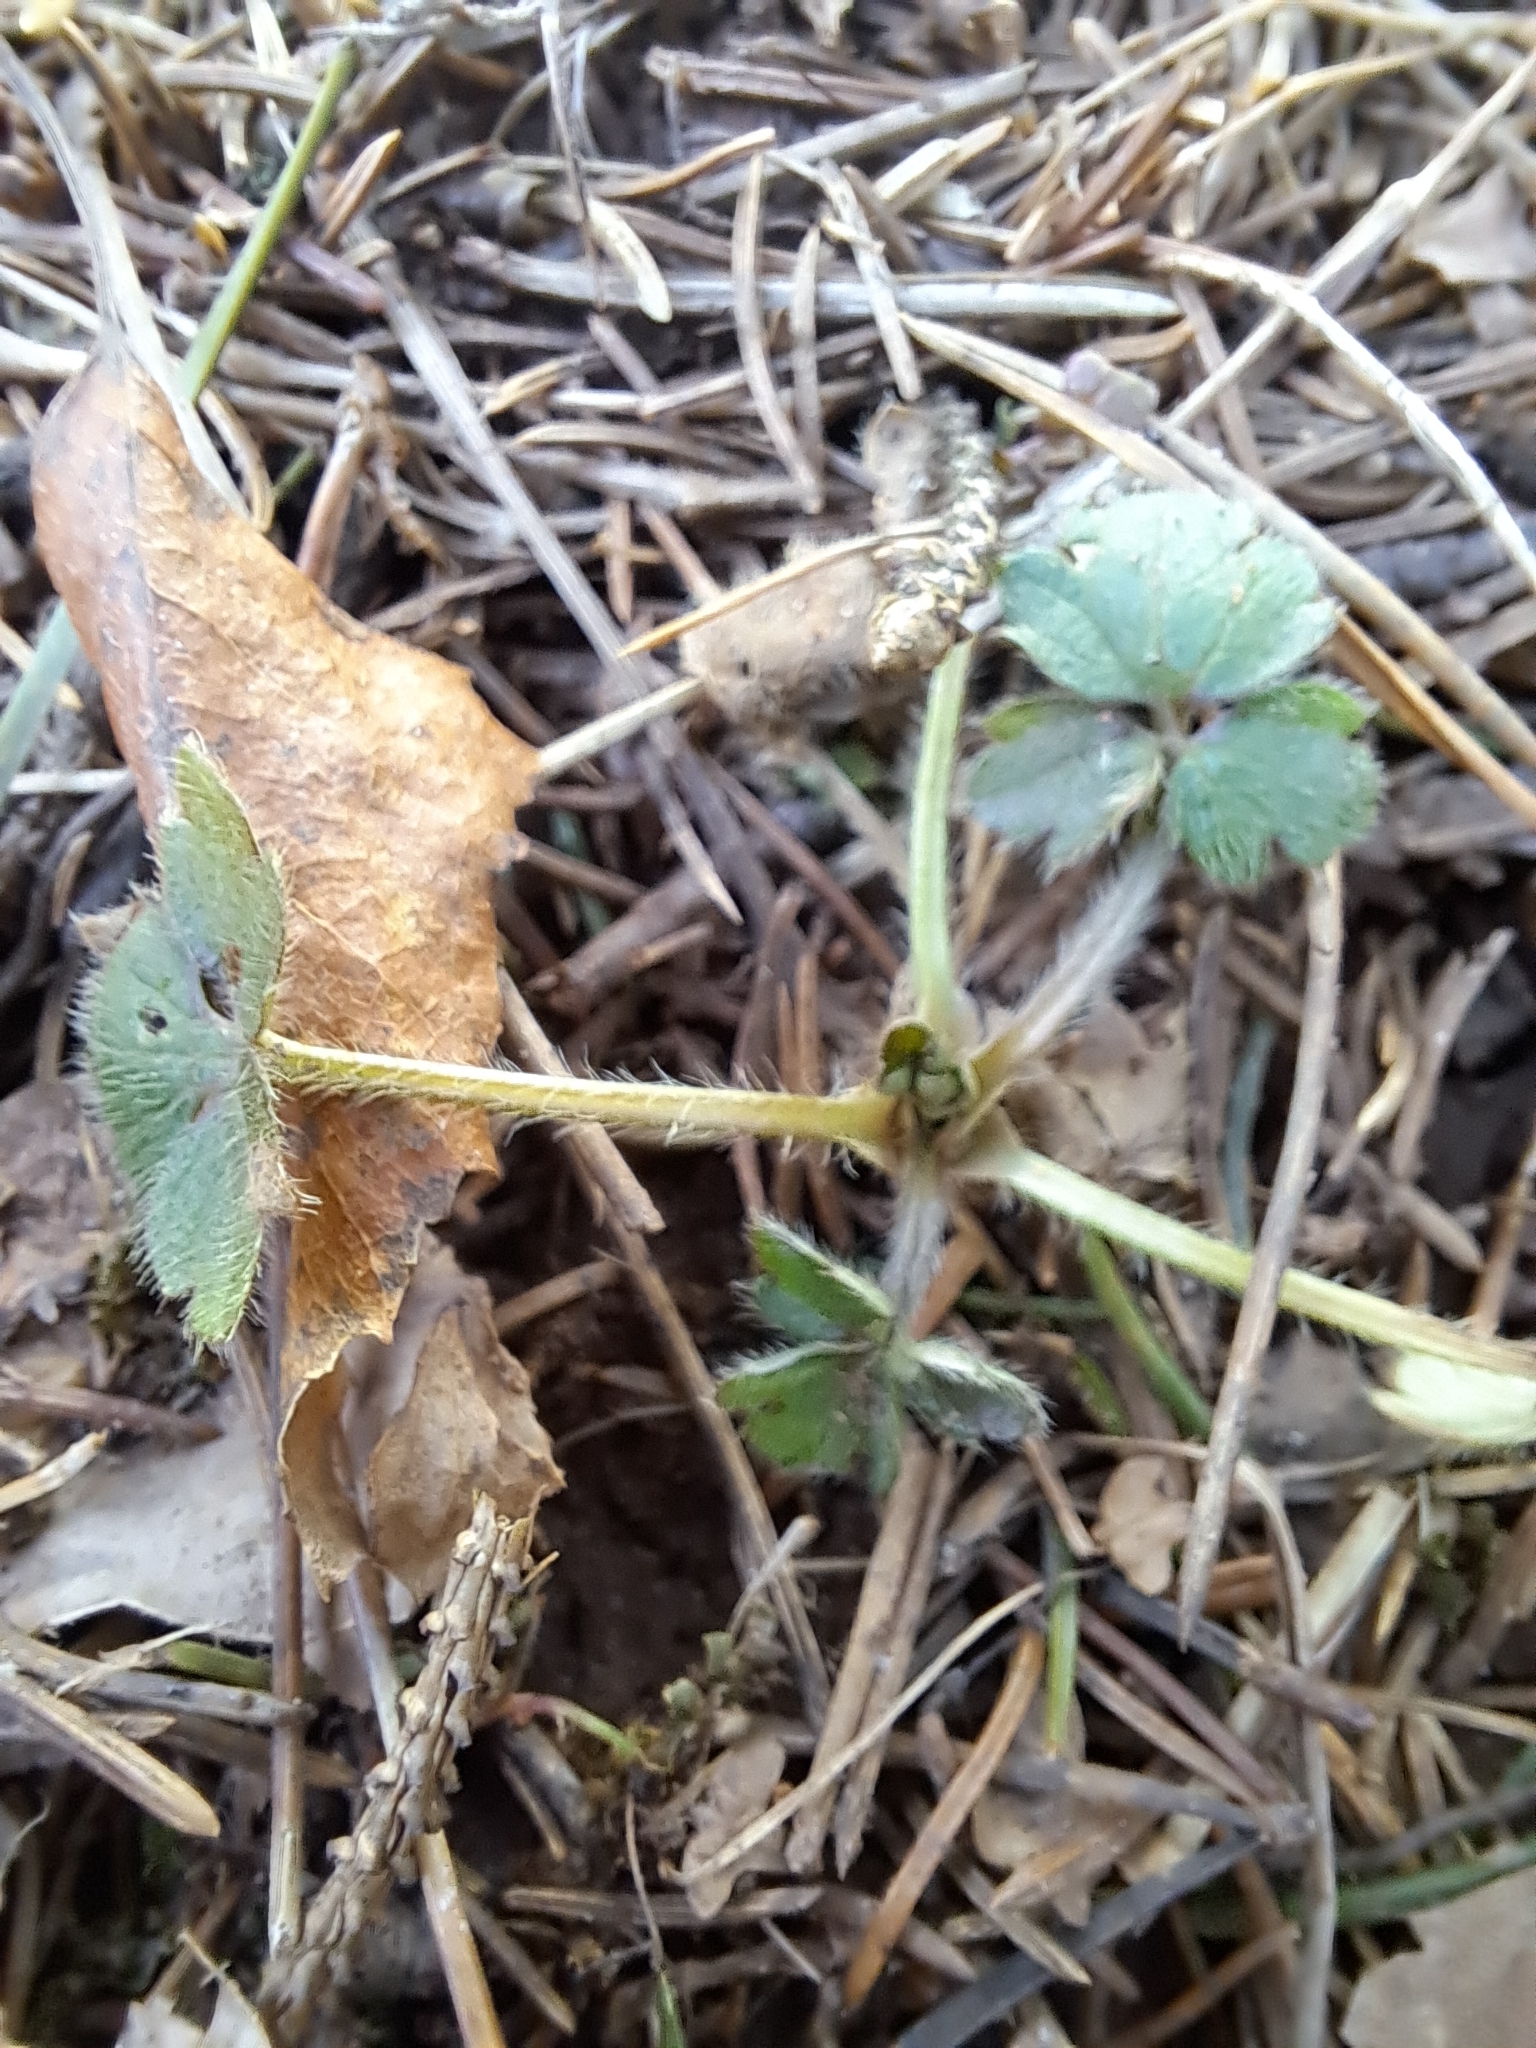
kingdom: Plantae
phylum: Tracheophyta
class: Magnoliopsida
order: Ranunculales
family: Ranunculaceae
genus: Ranunculus
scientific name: Ranunculus repens
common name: Creeping buttercup
